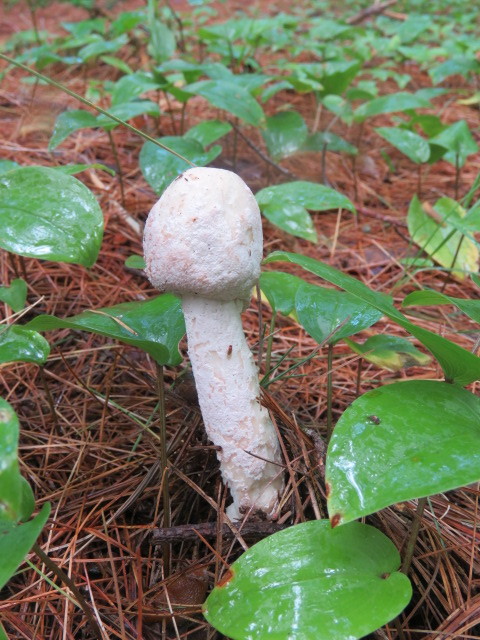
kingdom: Fungi
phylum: Ascomycota
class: Sordariomycetes
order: Hypocreales
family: Hypocreaceae
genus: Hypomyces
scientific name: Hypomyces hyalinus
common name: Amanita mold
